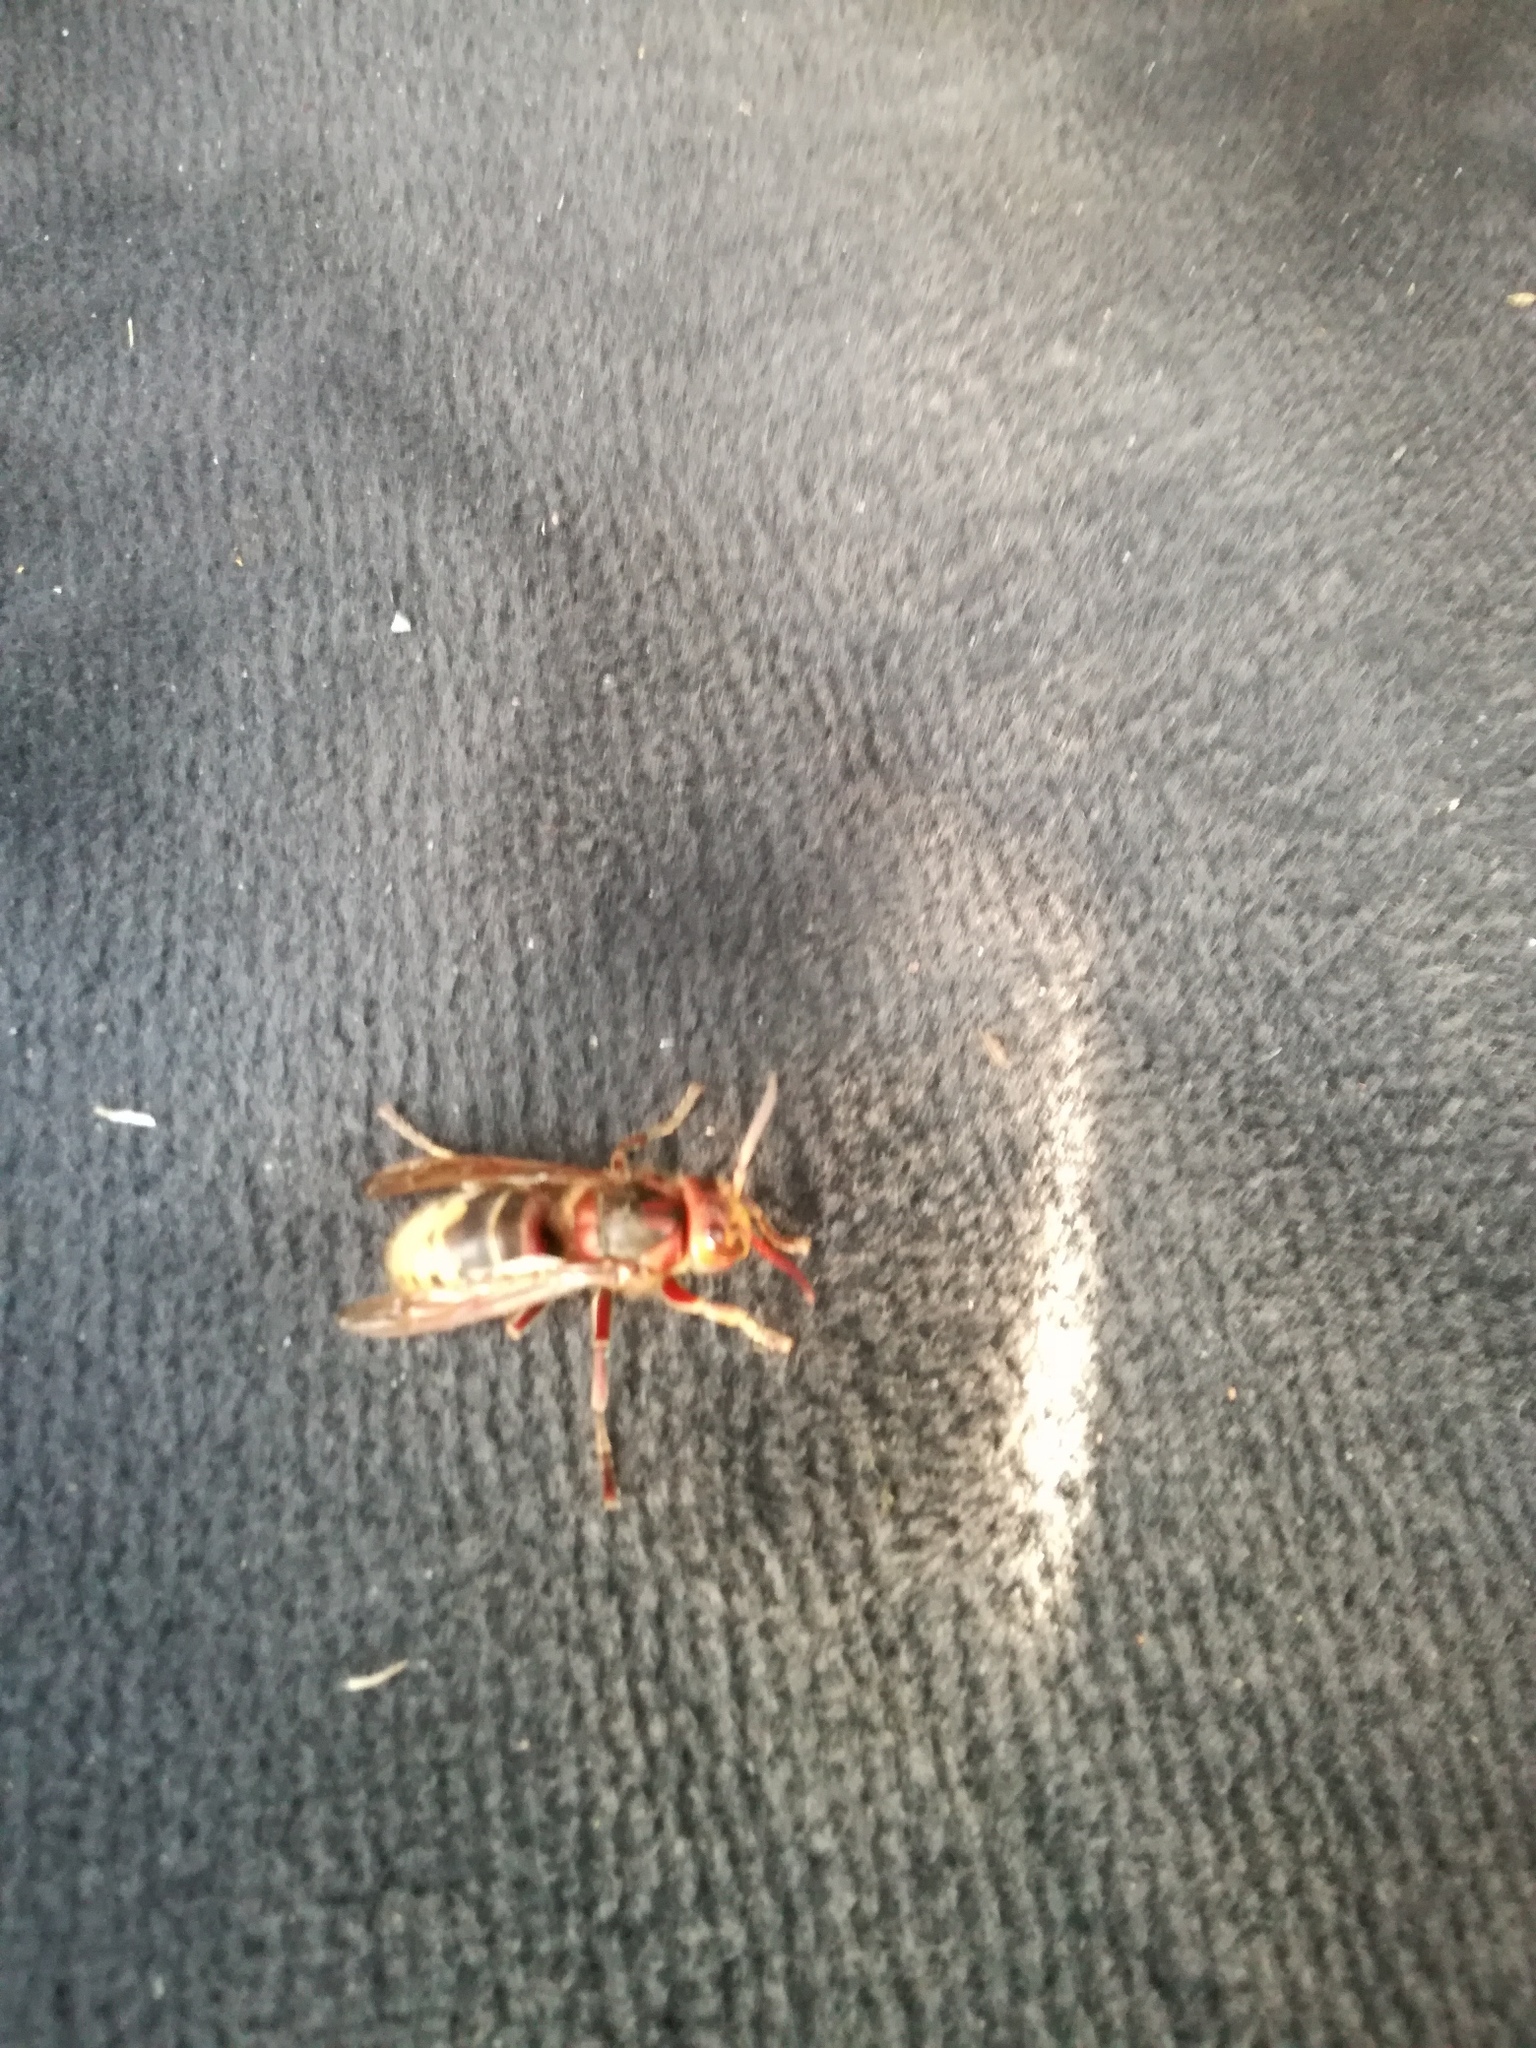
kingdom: Animalia
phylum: Arthropoda
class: Insecta
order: Hymenoptera
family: Vespidae
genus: Vespa
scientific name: Vespa crabro
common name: Hornet
